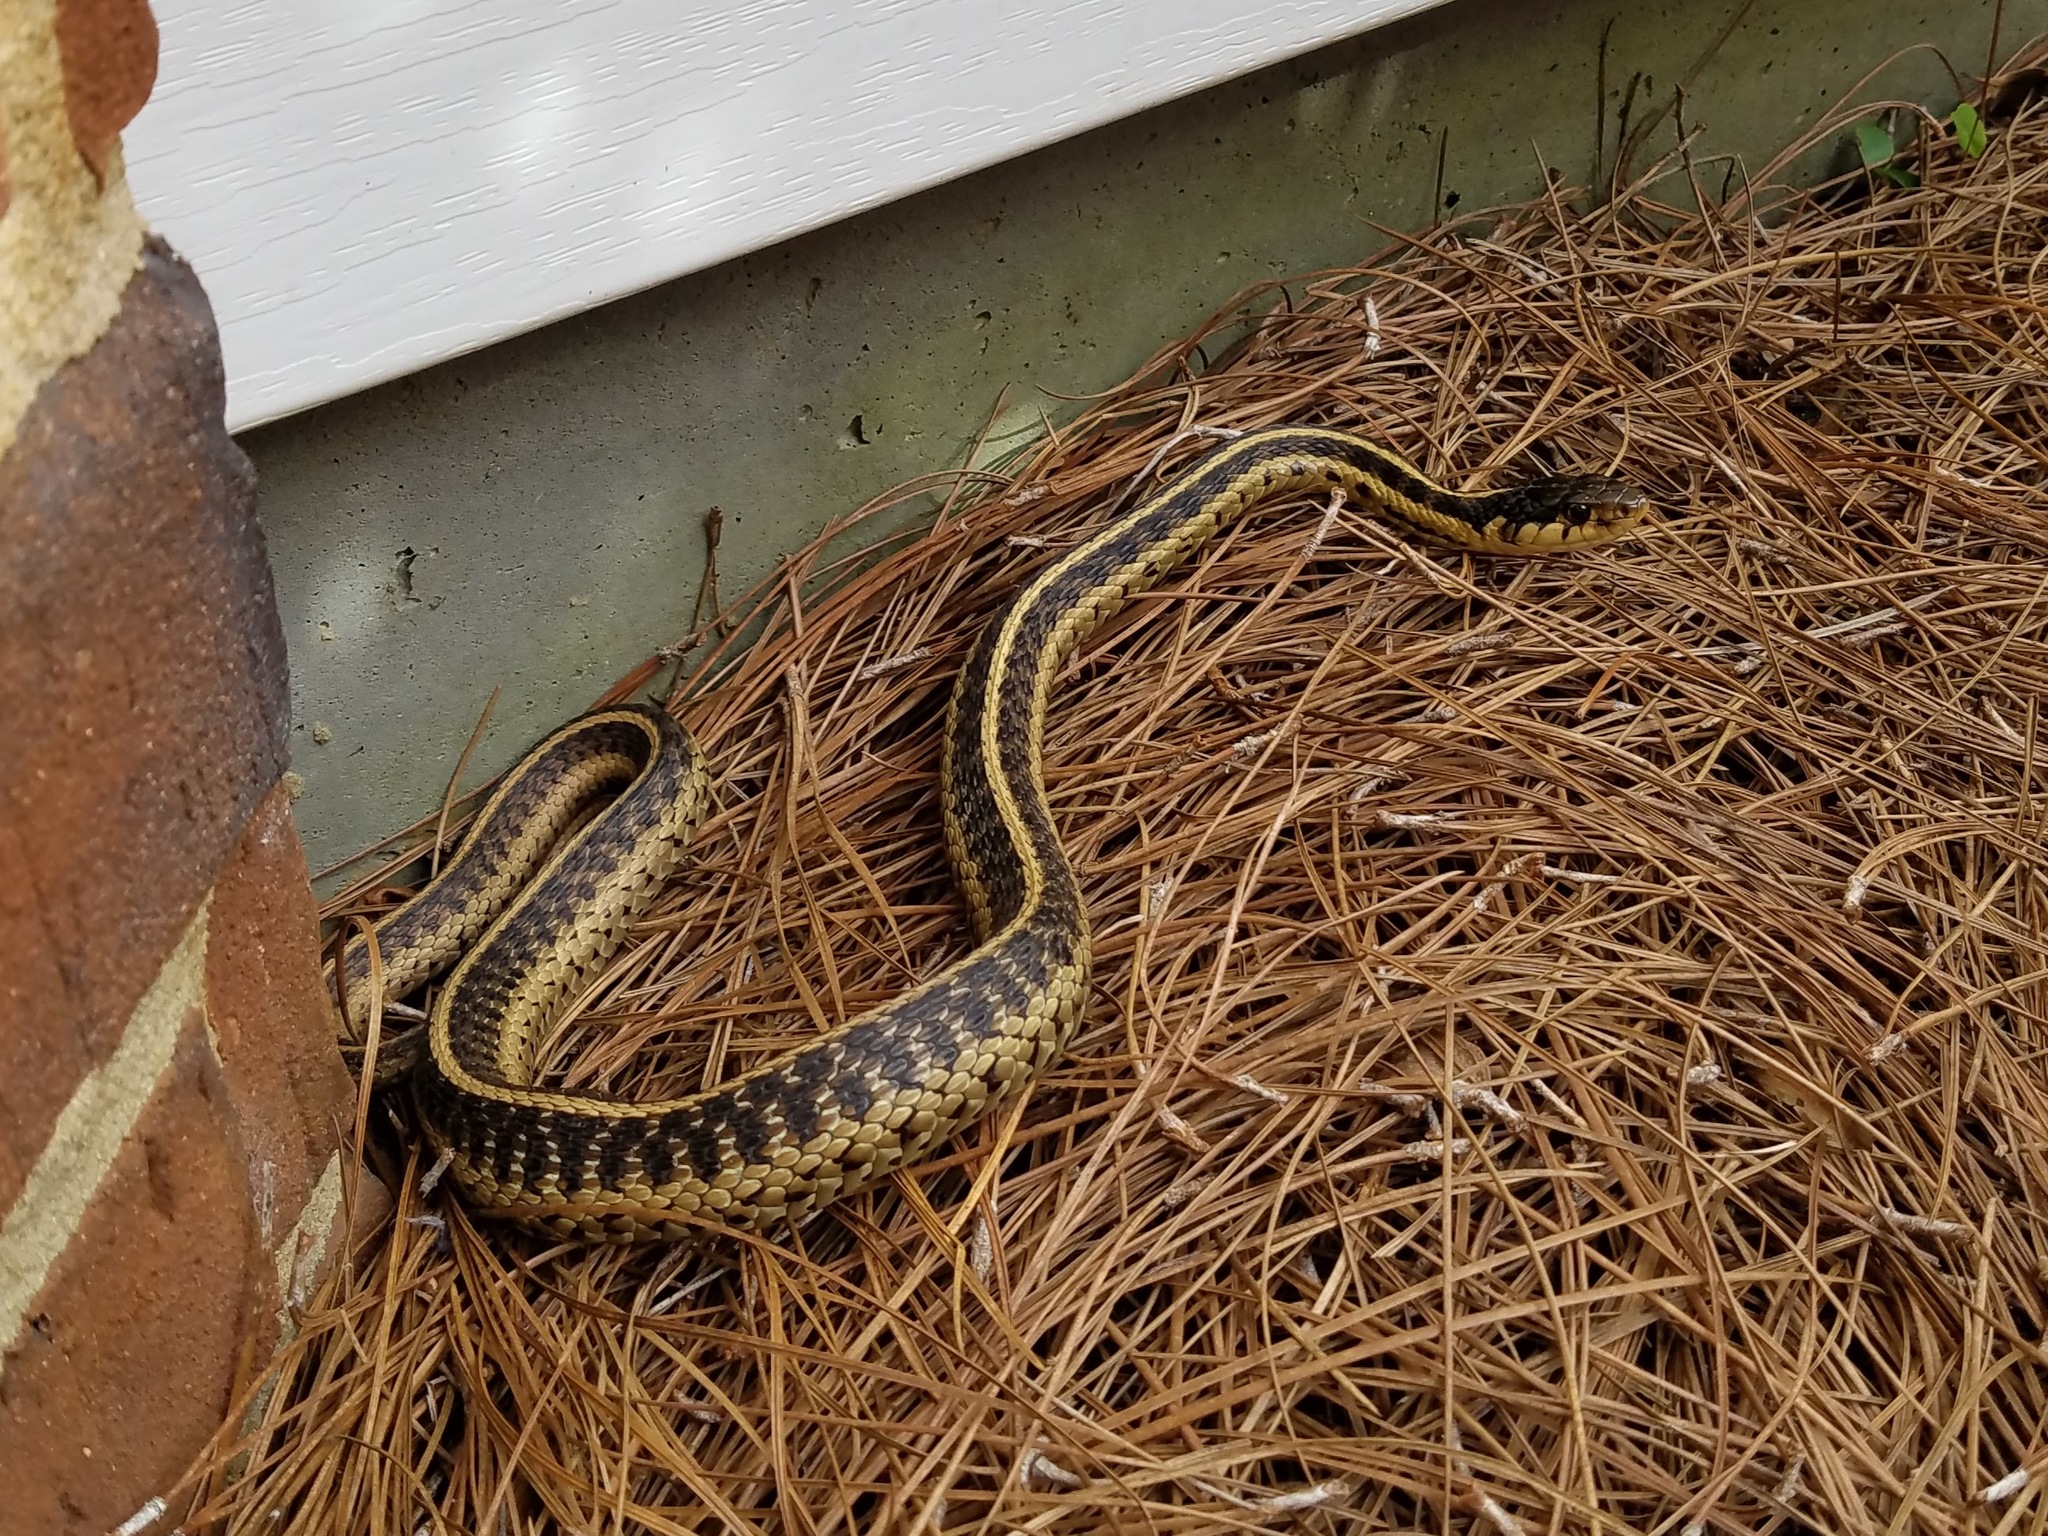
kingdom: Animalia
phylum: Chordata
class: Squamata
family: Colubridae
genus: Thamnophis
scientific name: Thamnophis sirtalis
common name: Common garter snake
